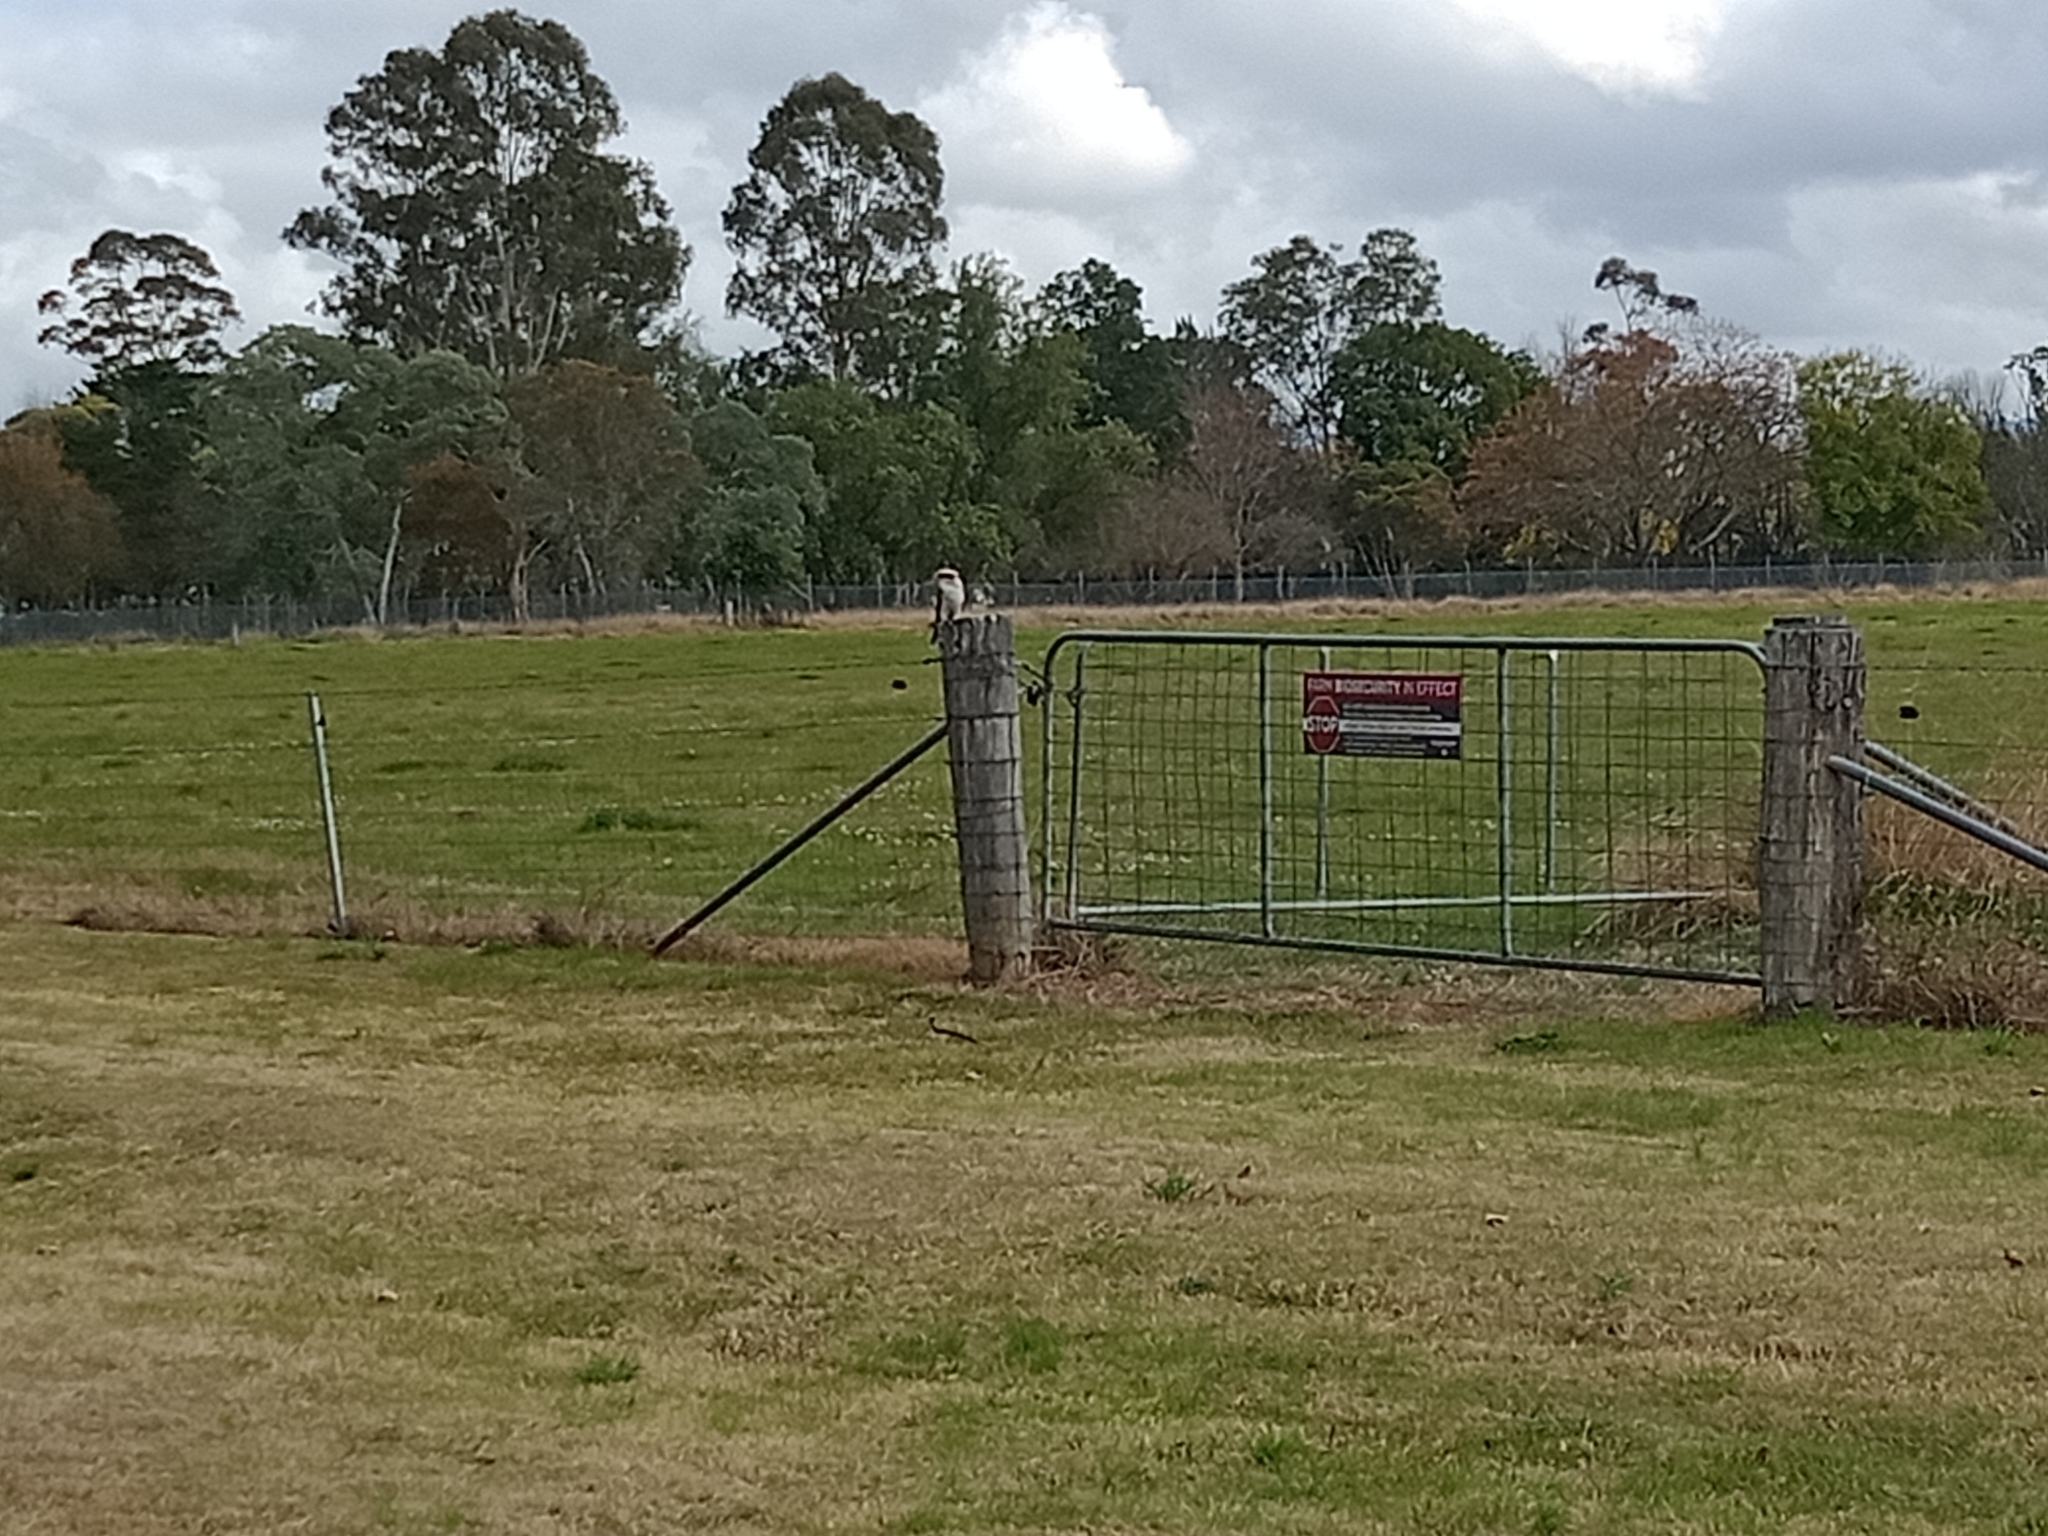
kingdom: Animalia
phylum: Chordata
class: Aves
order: Coraciiformes
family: Alcedinidae
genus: Dacelo
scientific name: Dacelo novaeguineae
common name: Laughing kookaburra
